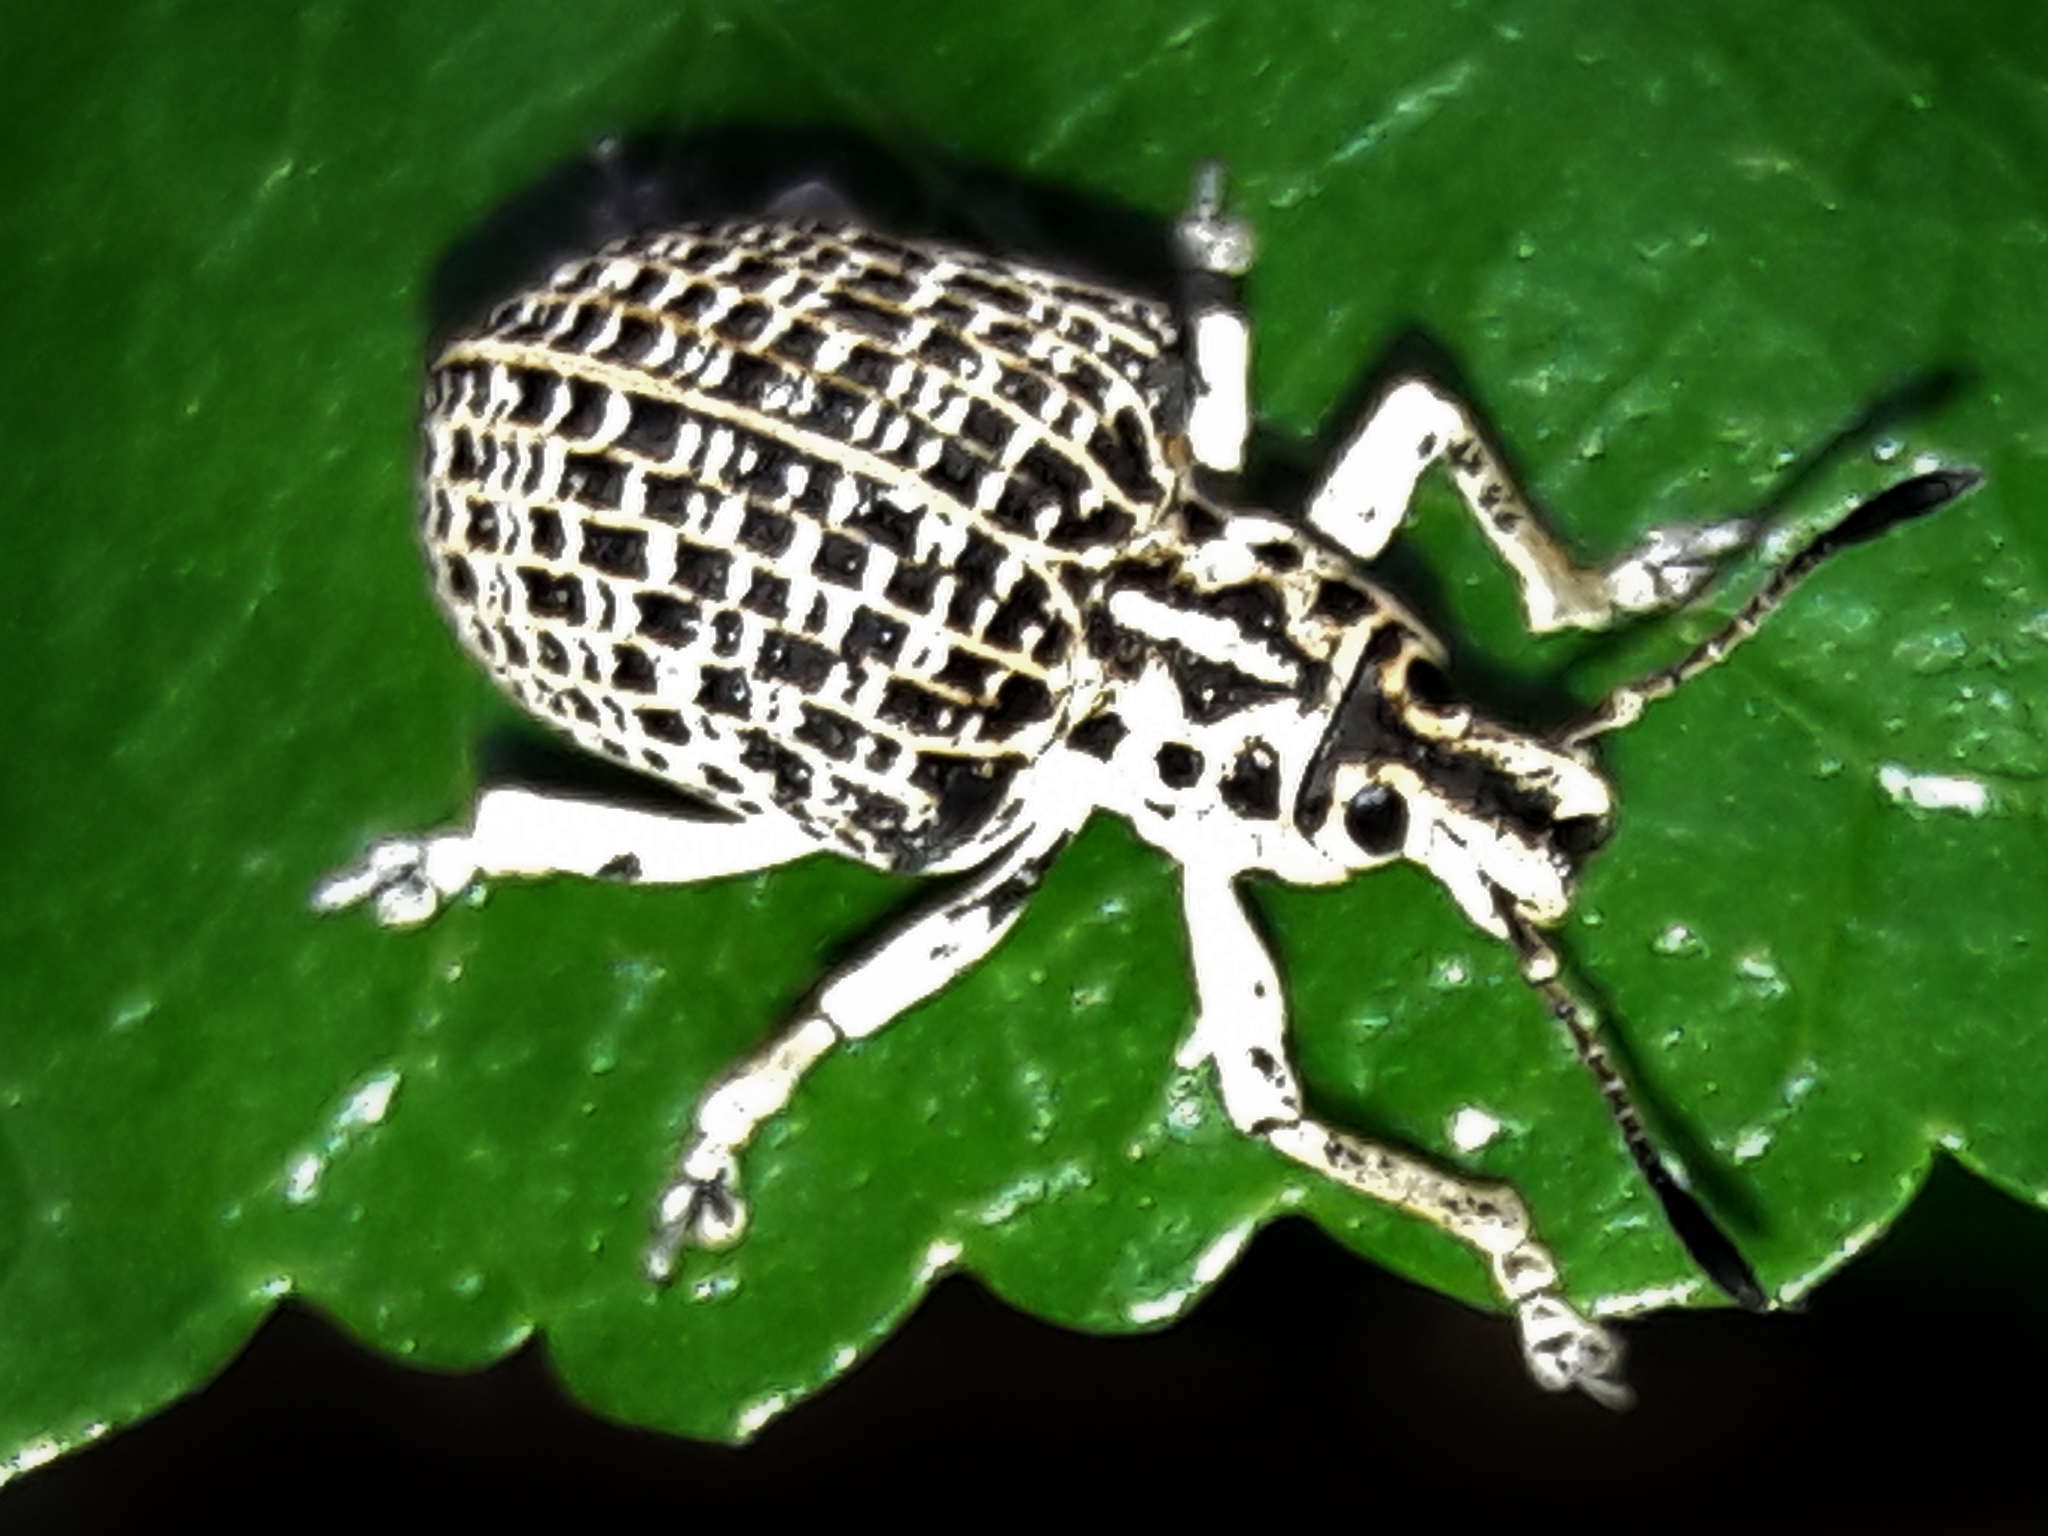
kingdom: Animalia
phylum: Arthropoda
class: Insecta
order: Coleoptera
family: Curculionidae
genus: Cydianerus
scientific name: Cydianerus latruncularius
